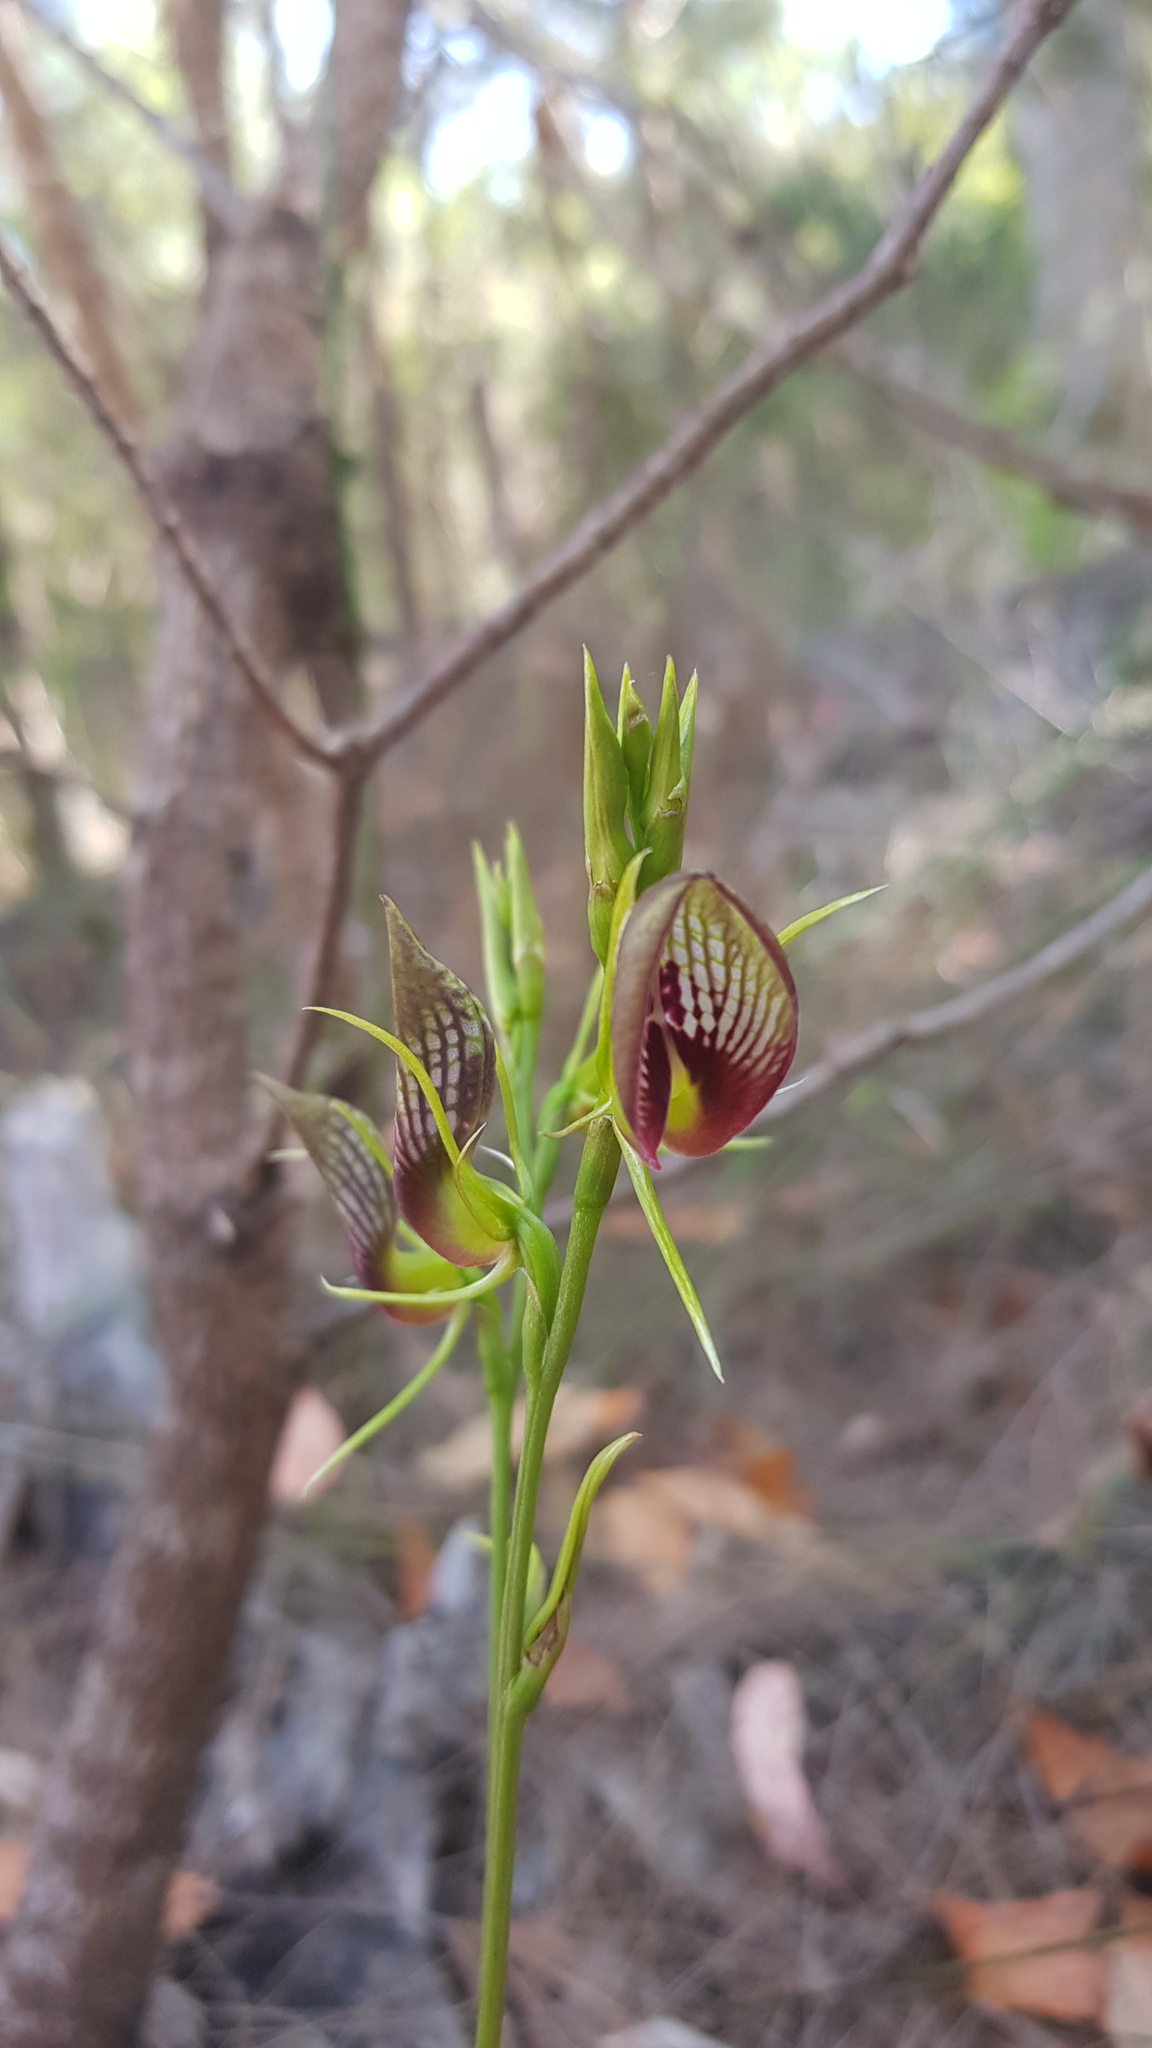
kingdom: Plantae
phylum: Tracheophyta
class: Liliopsida
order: Asparagales
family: Orchidaceae
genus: Cryptostylis
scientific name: Cryptostylis erecta
